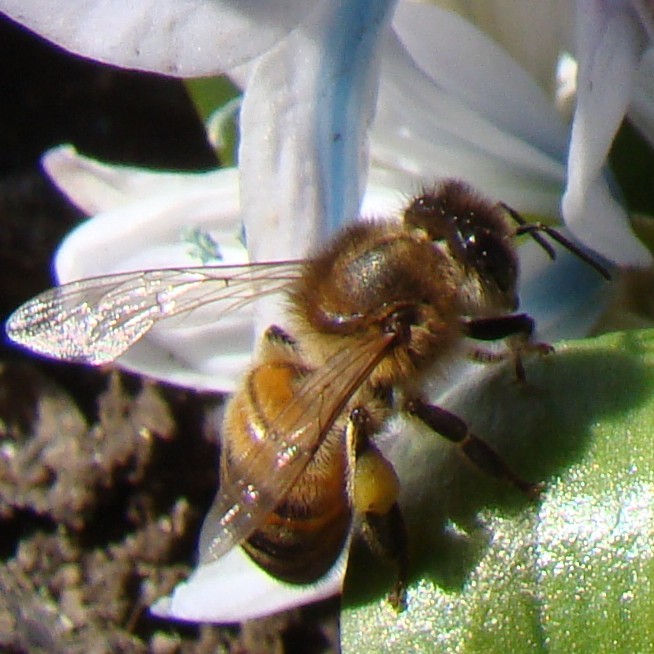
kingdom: Animalia
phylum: Arthropoda
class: Insecta
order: Hymenoptera
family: Apidae
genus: Apis
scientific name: Apis mellifera
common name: Honey bee
